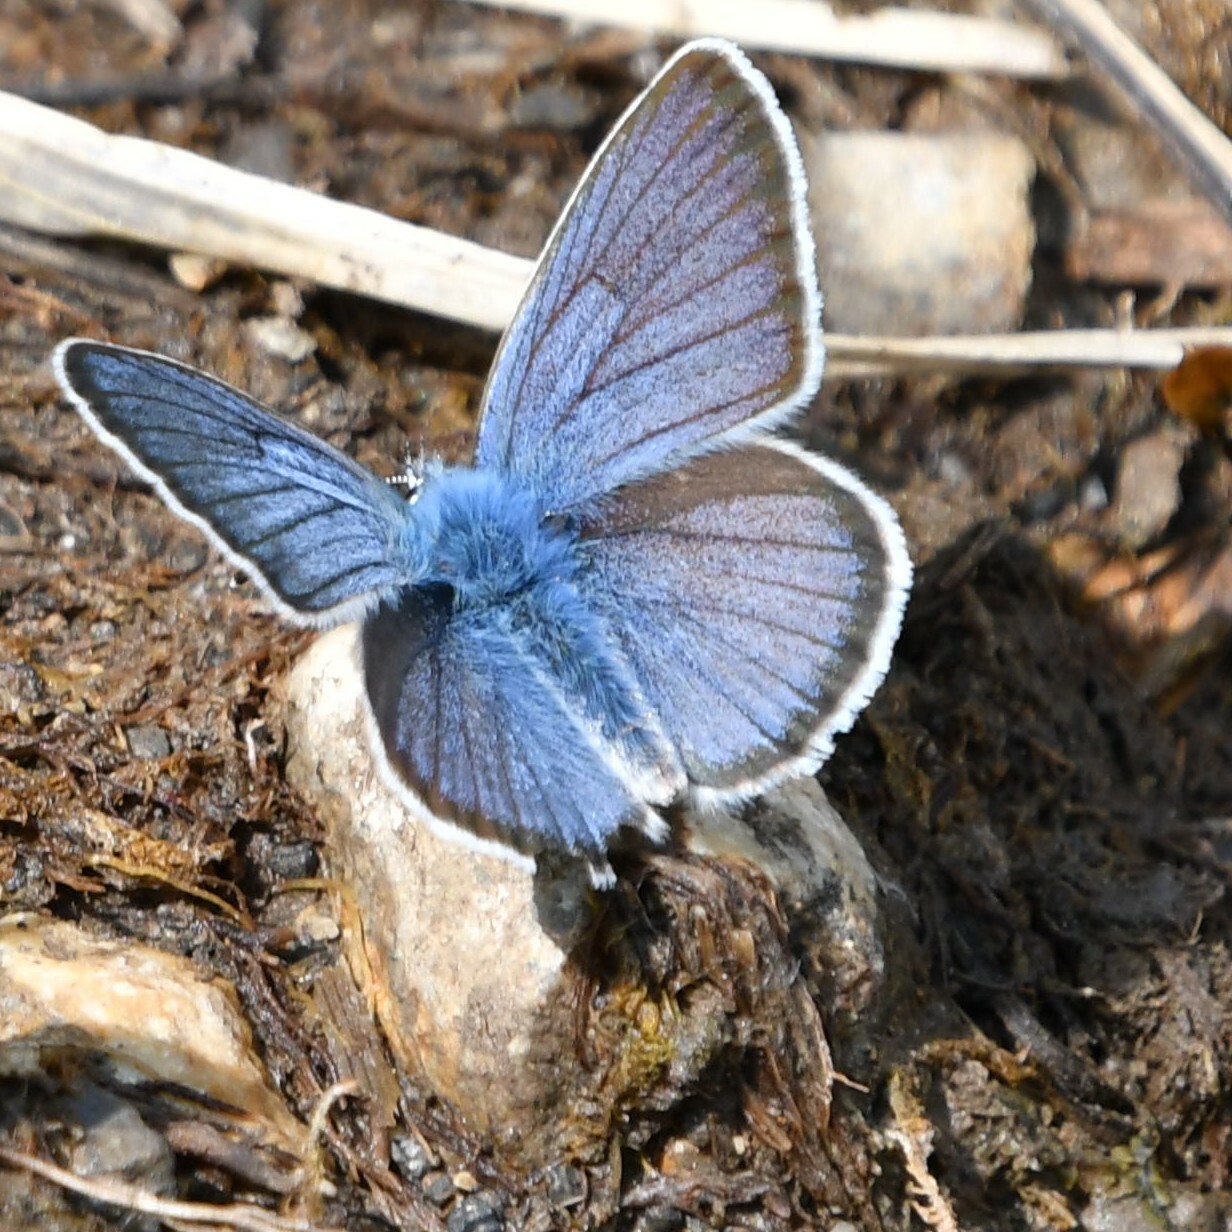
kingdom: Animalia
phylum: Arthropoda
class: Insecta
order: Lepidoptera
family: Lycaenidae
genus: Cyaniris
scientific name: Cyaniris semiargus
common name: Mazarine blue
